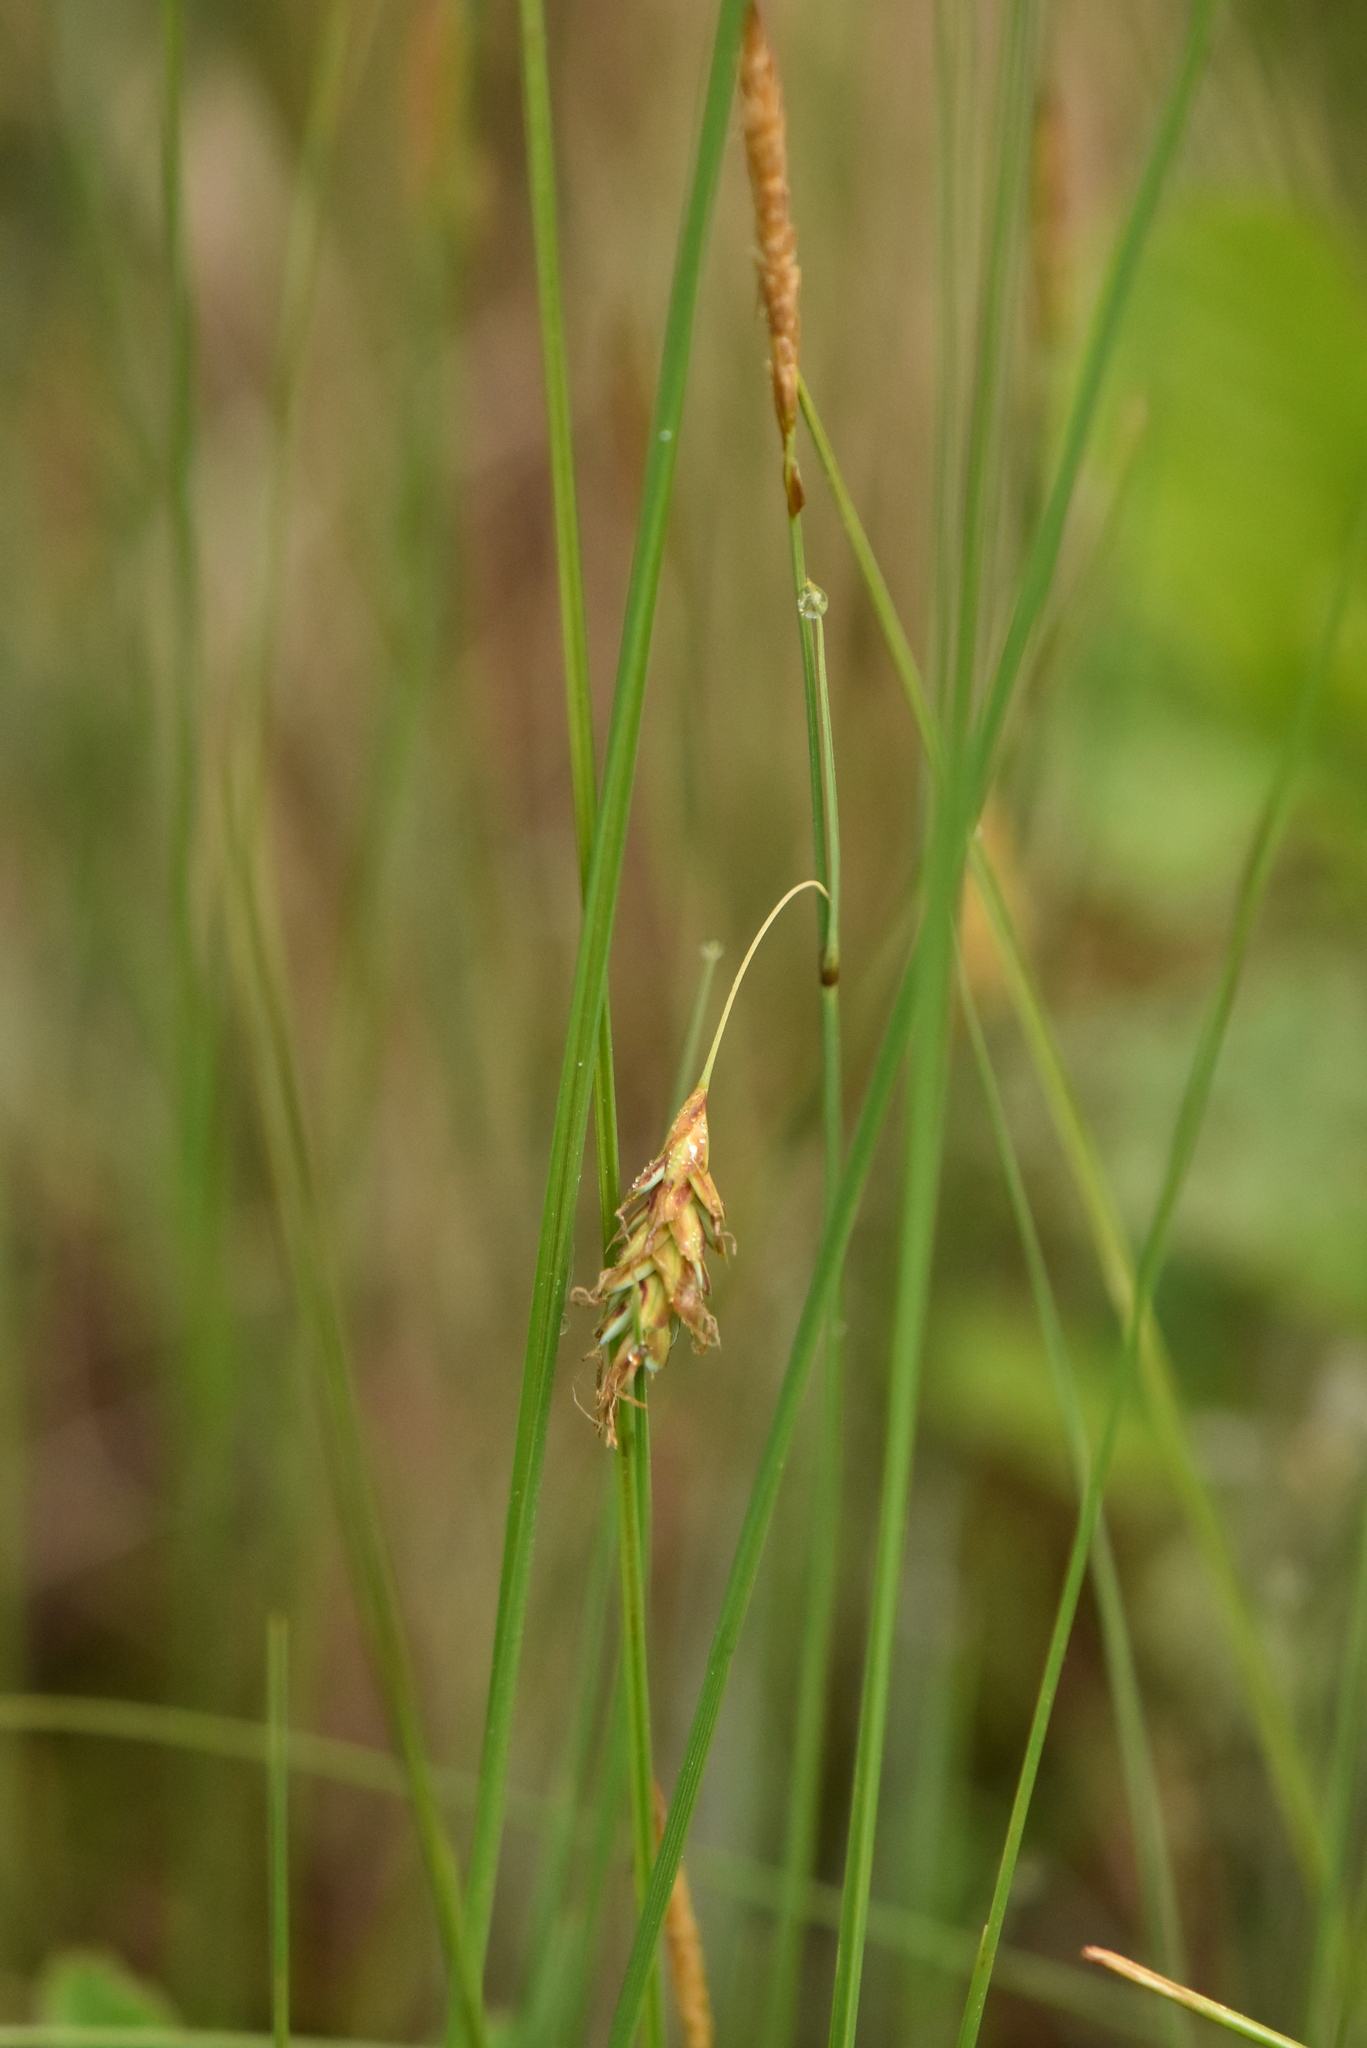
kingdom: Plantae
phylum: Tracheophyta
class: Liliopsida
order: Poales
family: Cyperaceae
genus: Carex
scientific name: Carex limosa
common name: Bog sedge
